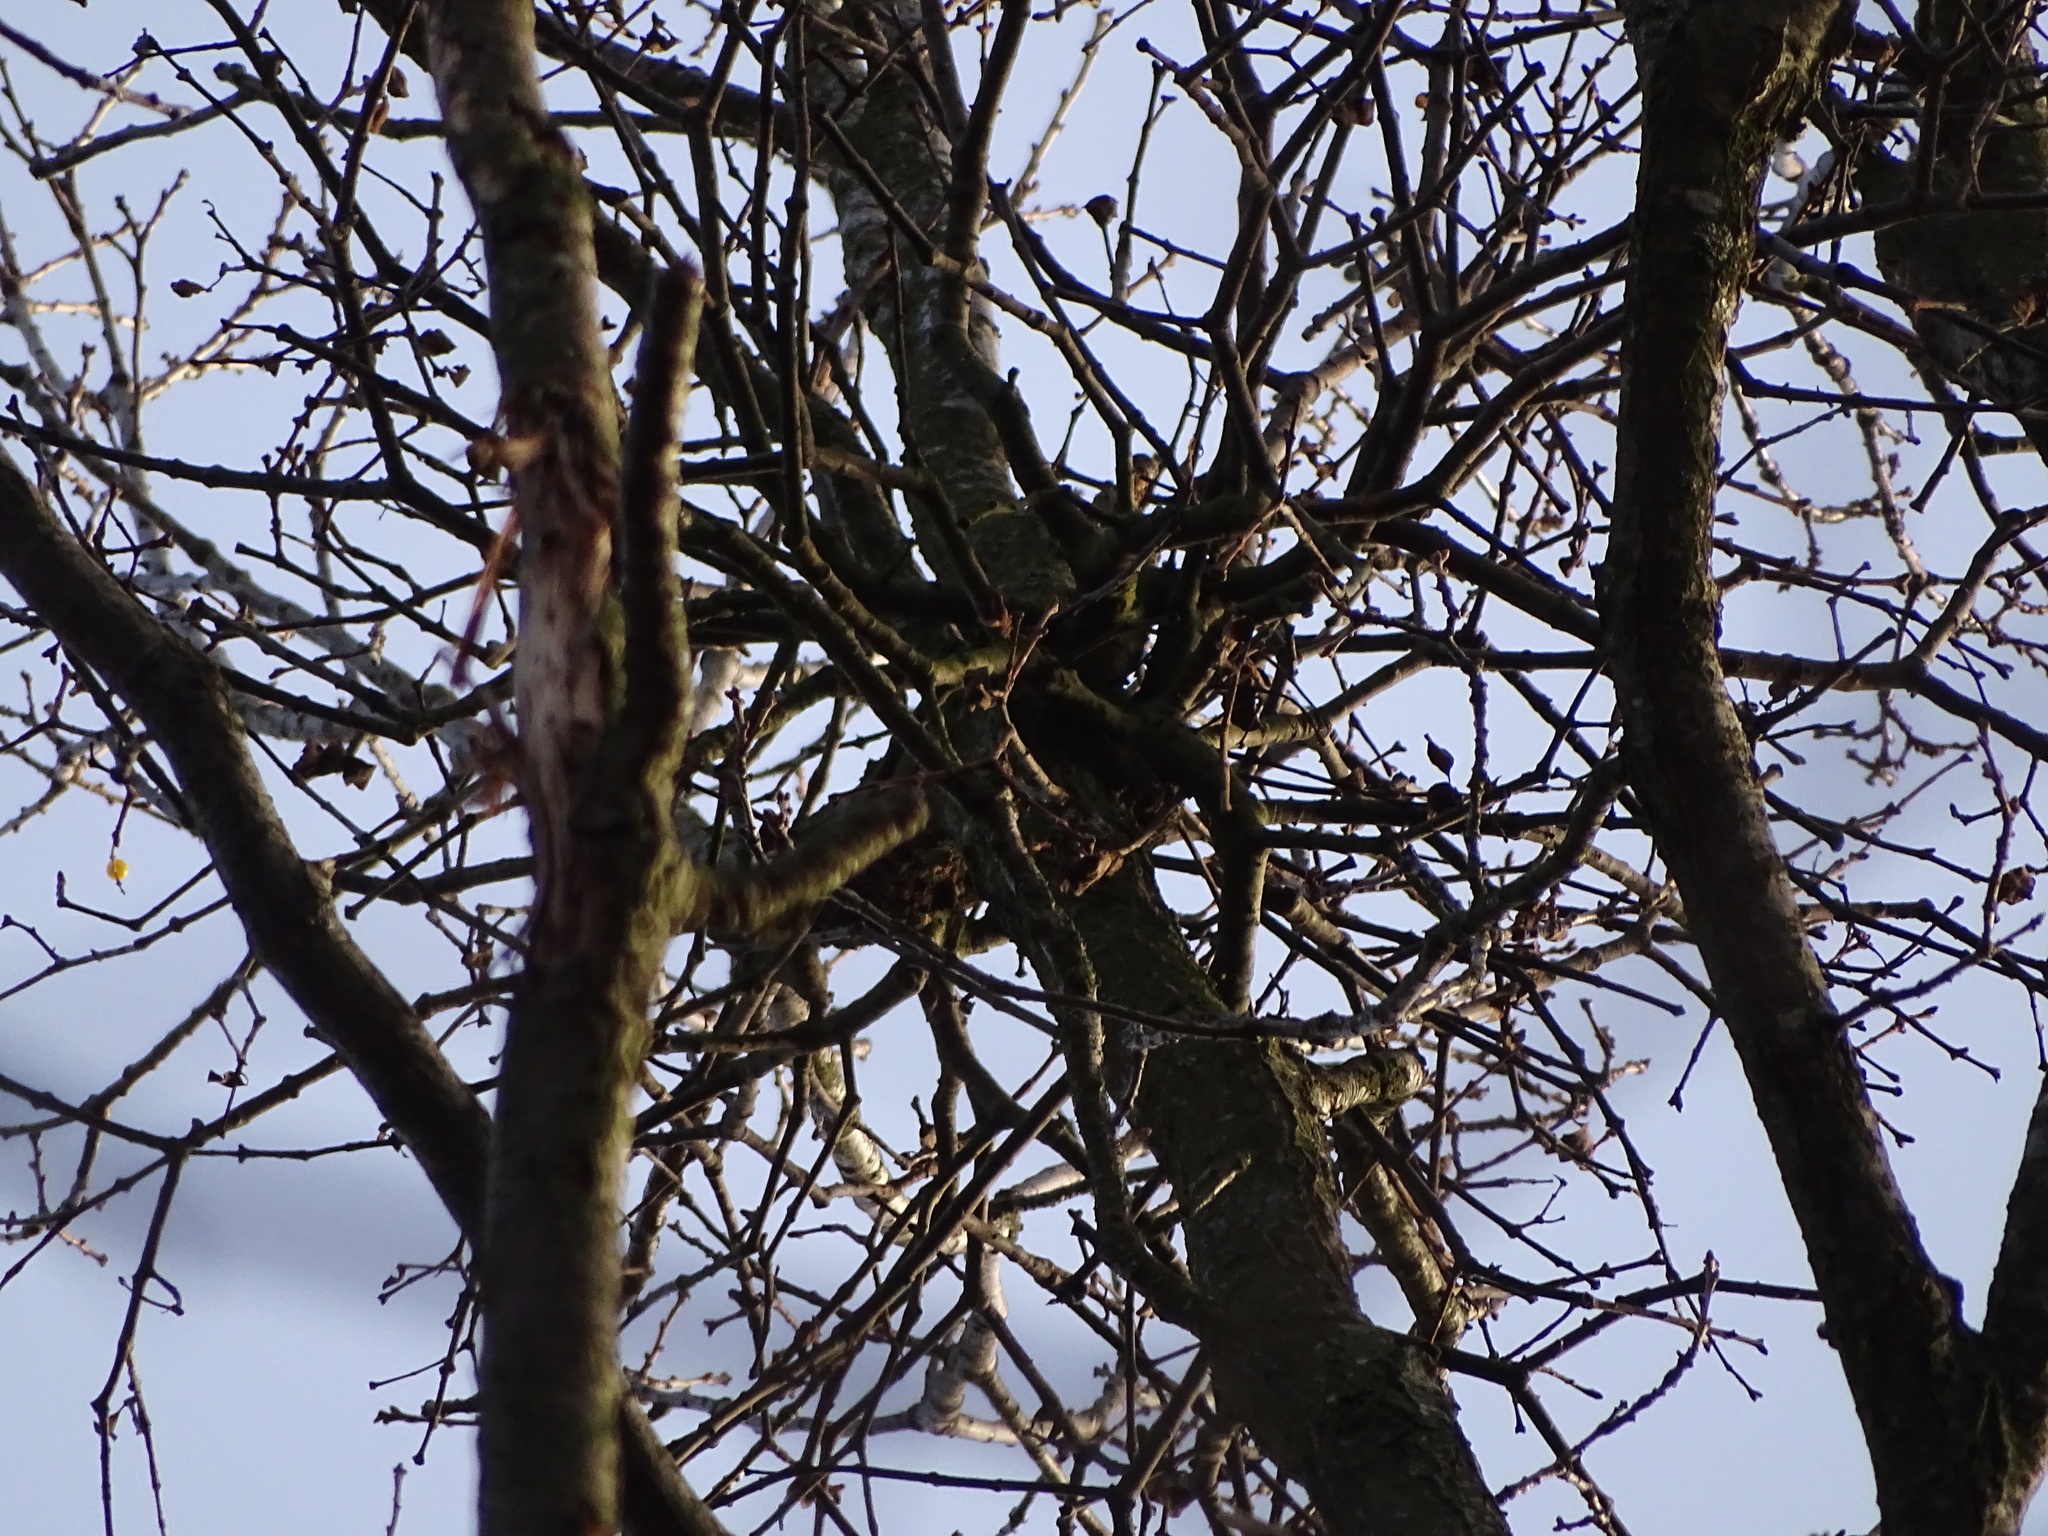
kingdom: Plantae
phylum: Tracheophyta
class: Magnoliopsida
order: Santalales
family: Loranthaceae
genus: Loranthus
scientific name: Loranthus europaeus
